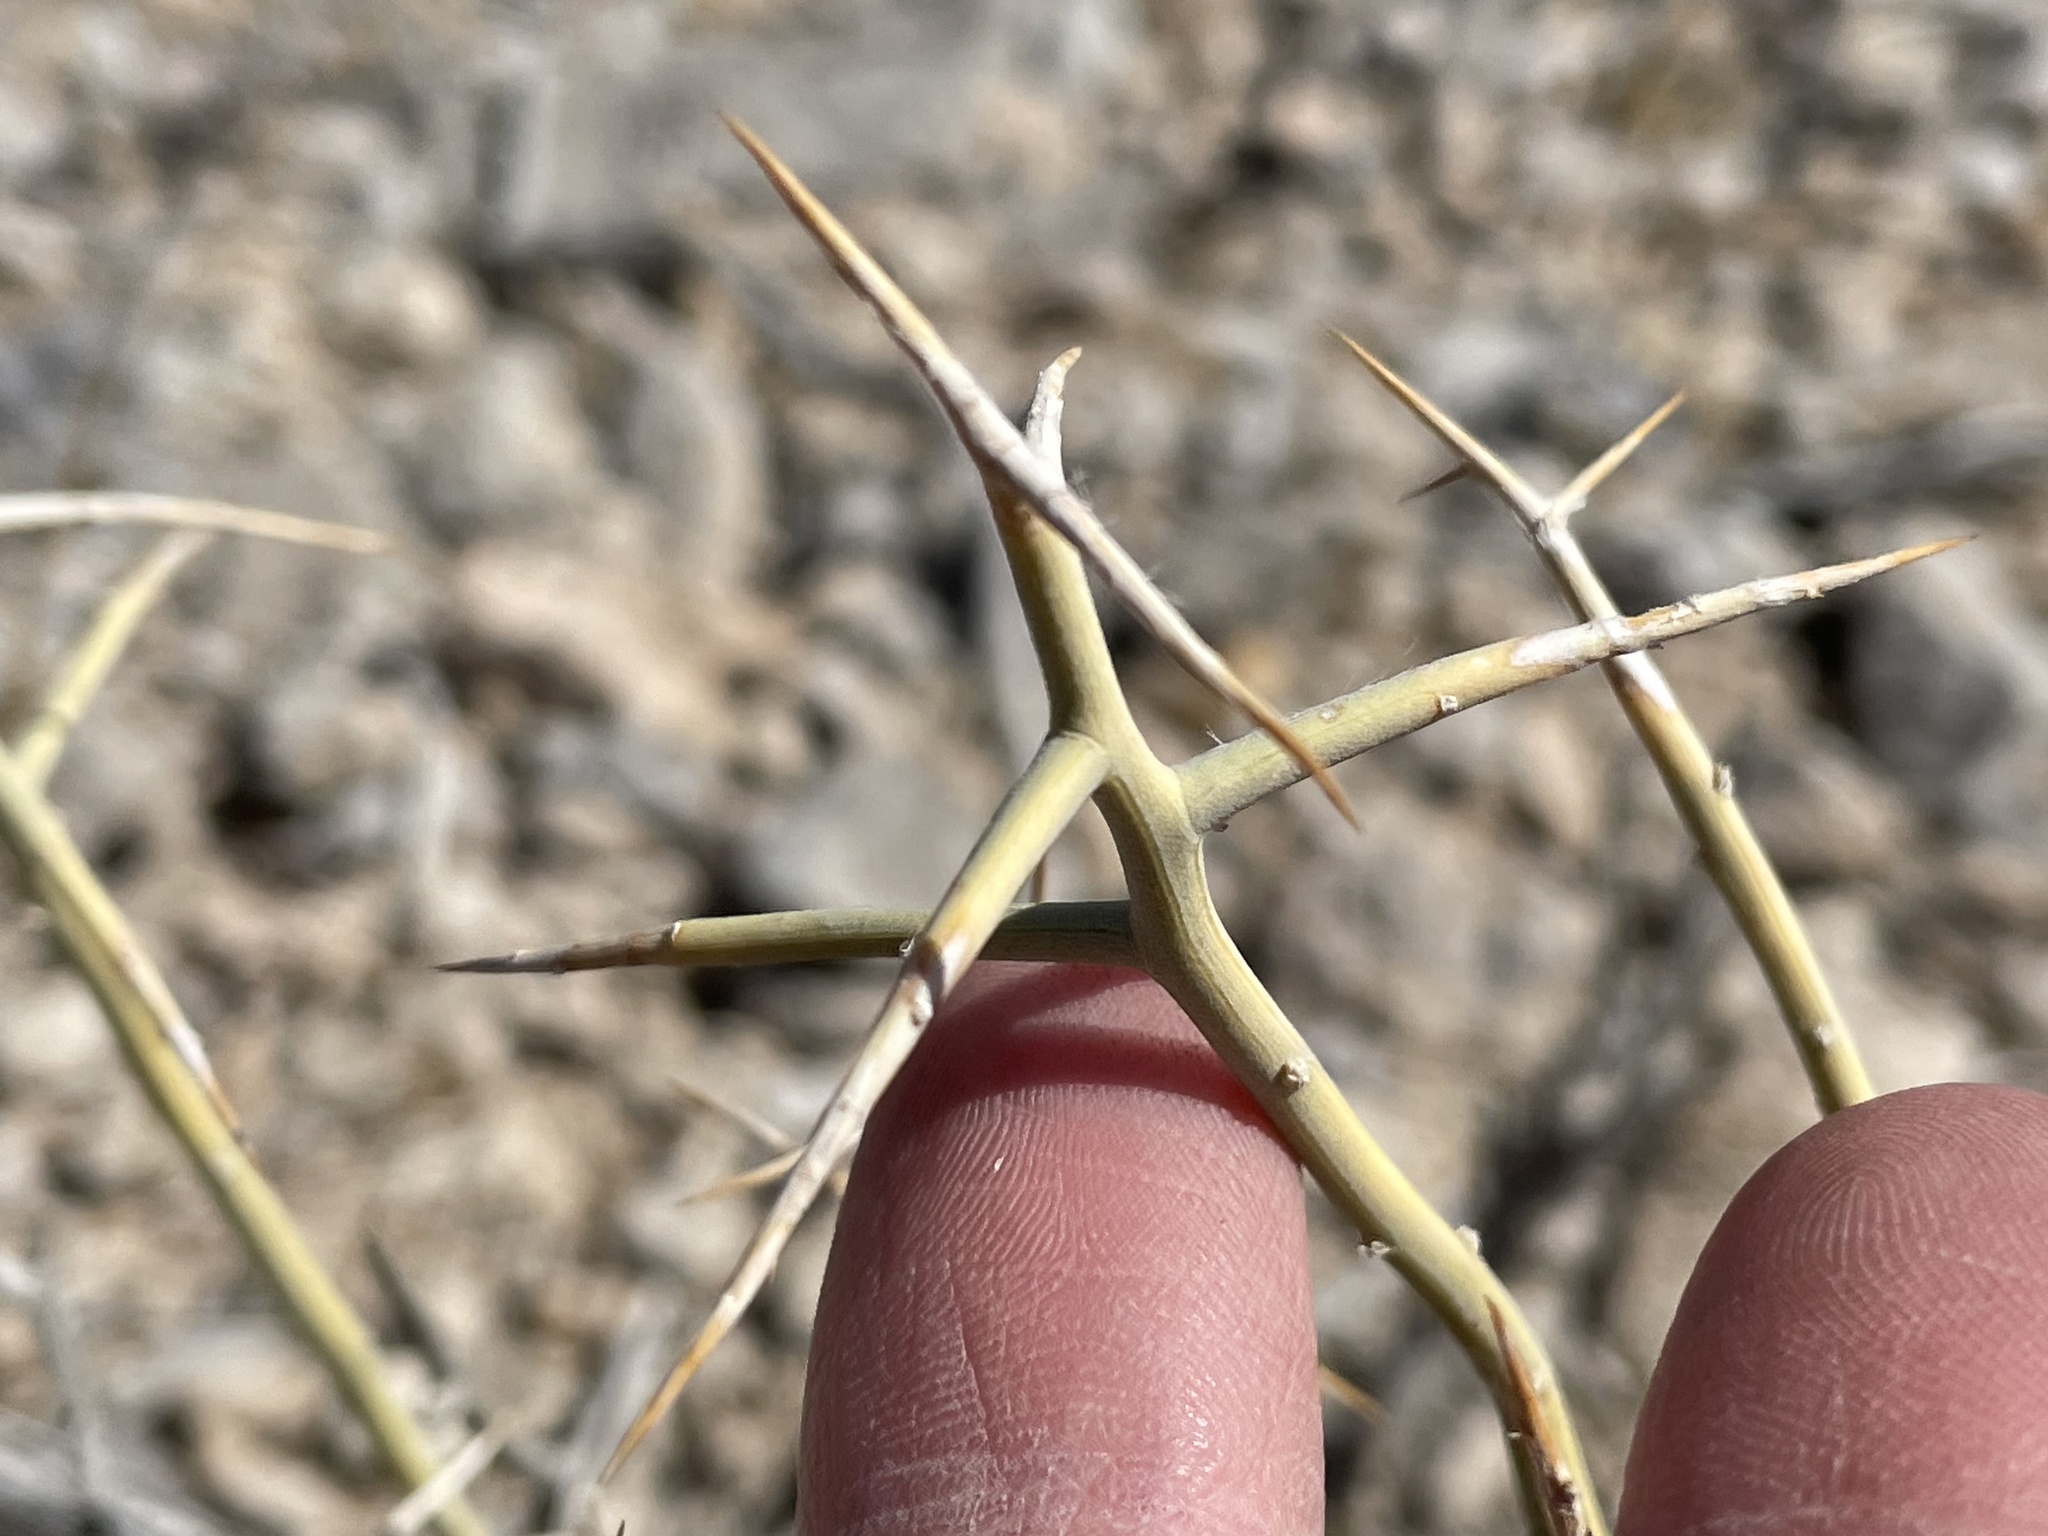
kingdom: Plantae
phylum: Tracheophyta
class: Magnoliopsida
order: Lamiales
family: Oleaceae
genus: Menodora
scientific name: Menodora spinescens
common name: Spiny menodora
